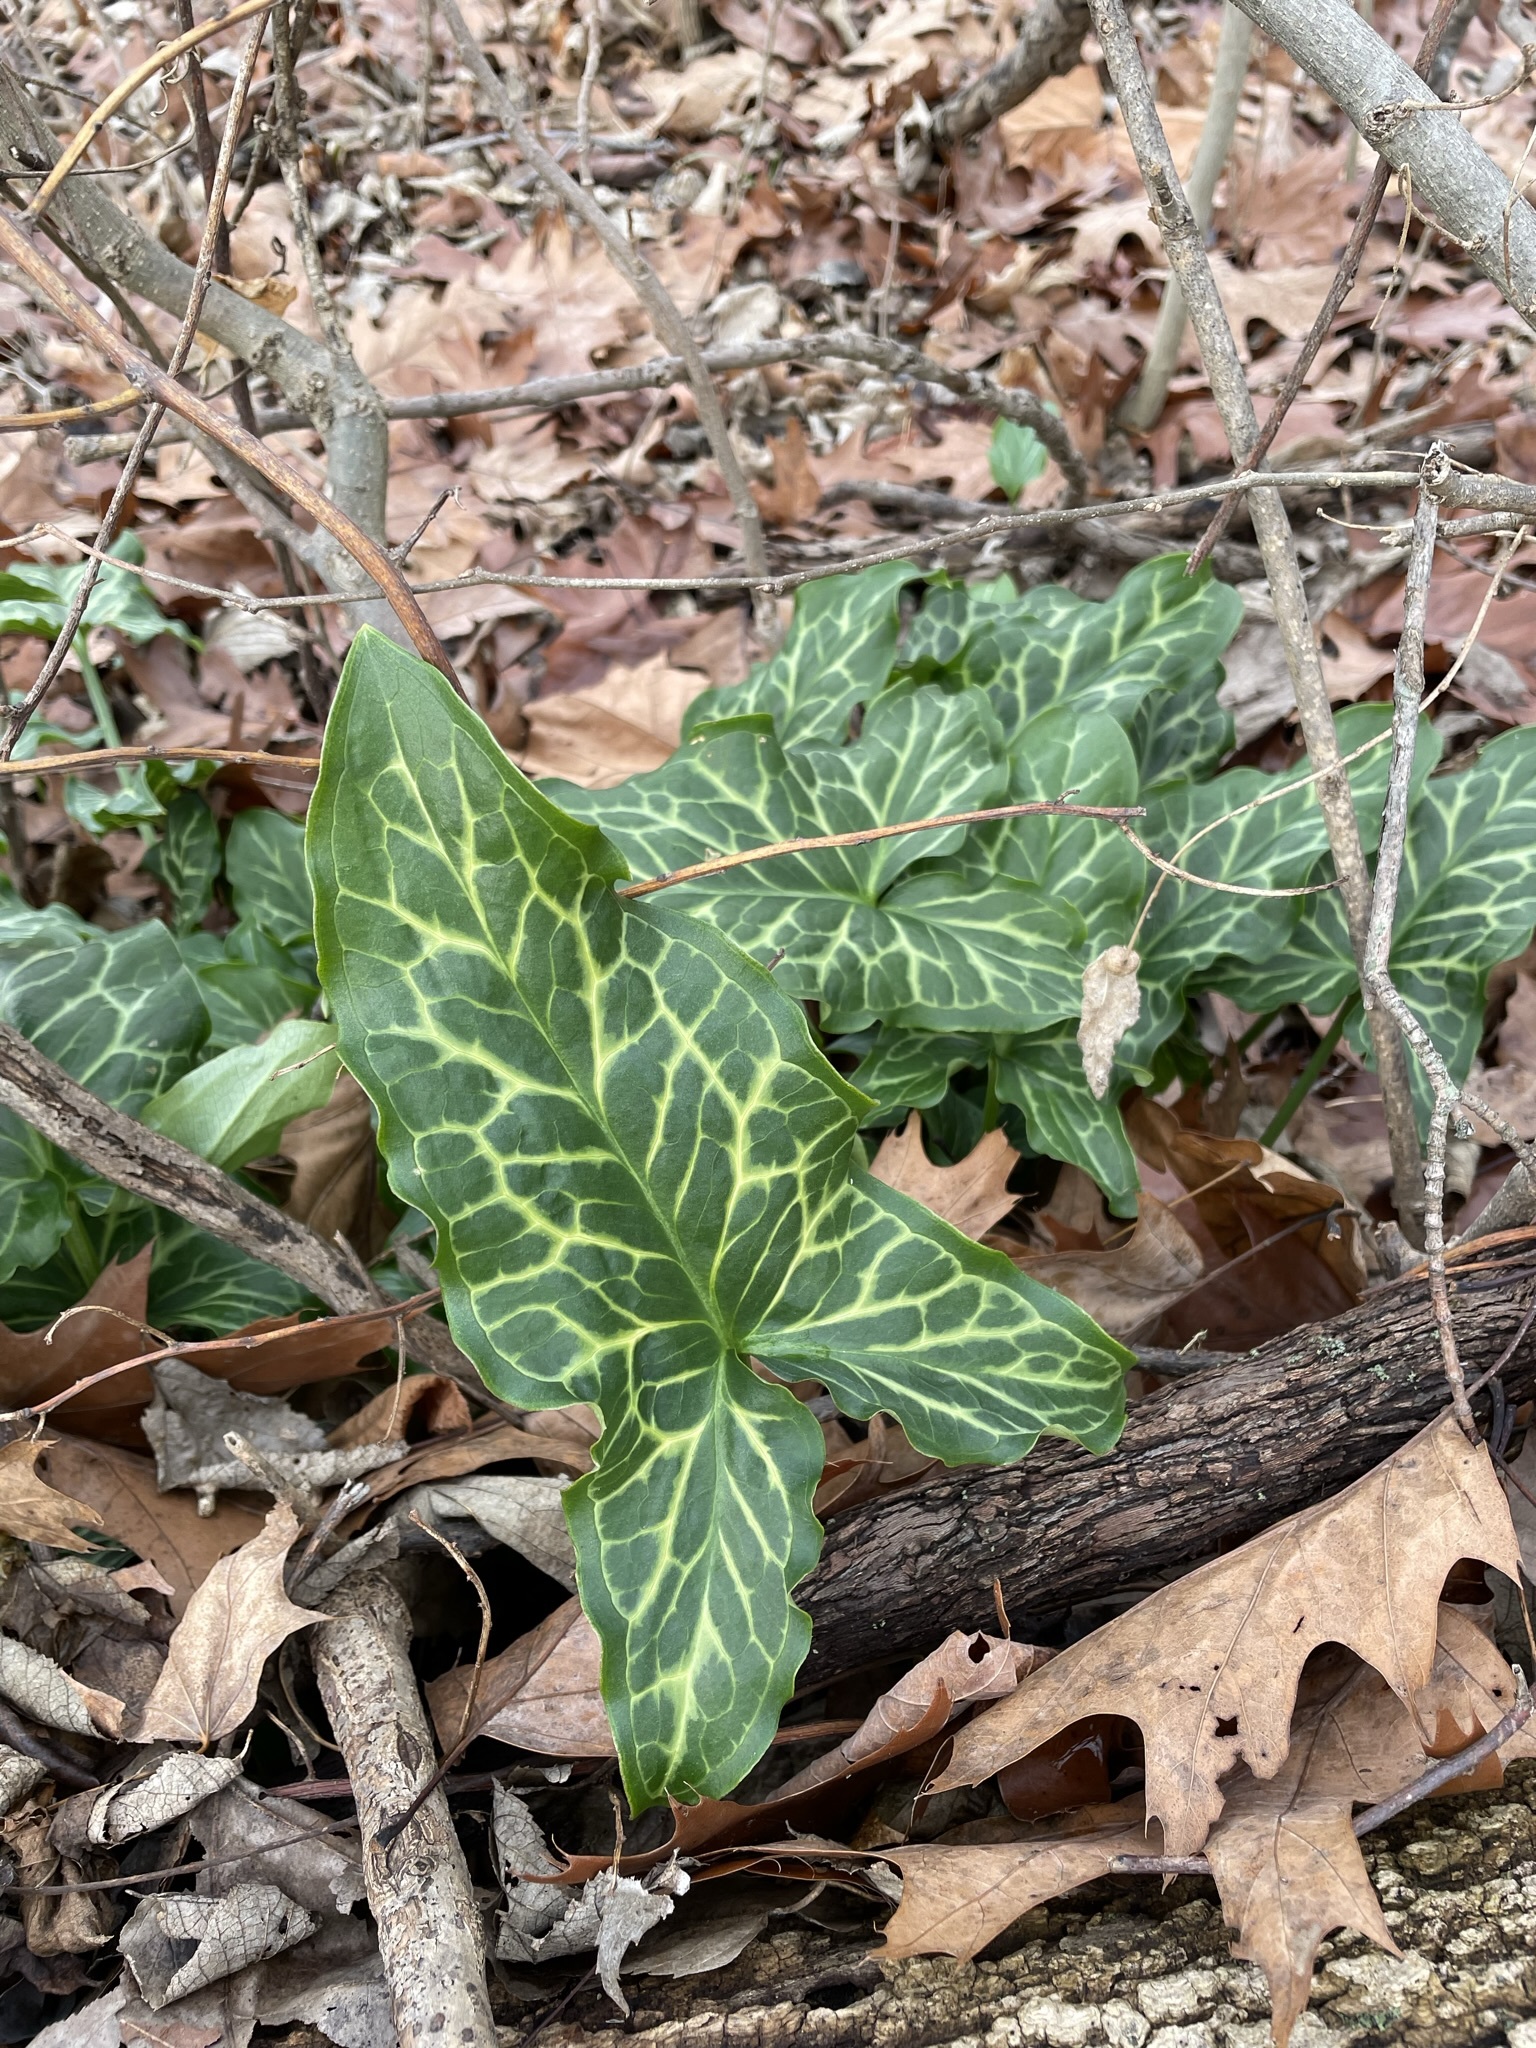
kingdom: Plantae
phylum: Tracheophyta
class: Liliopsida
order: Alismatales
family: Araceae
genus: Arum
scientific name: Arum italicum
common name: Italian lords-and-ladies
